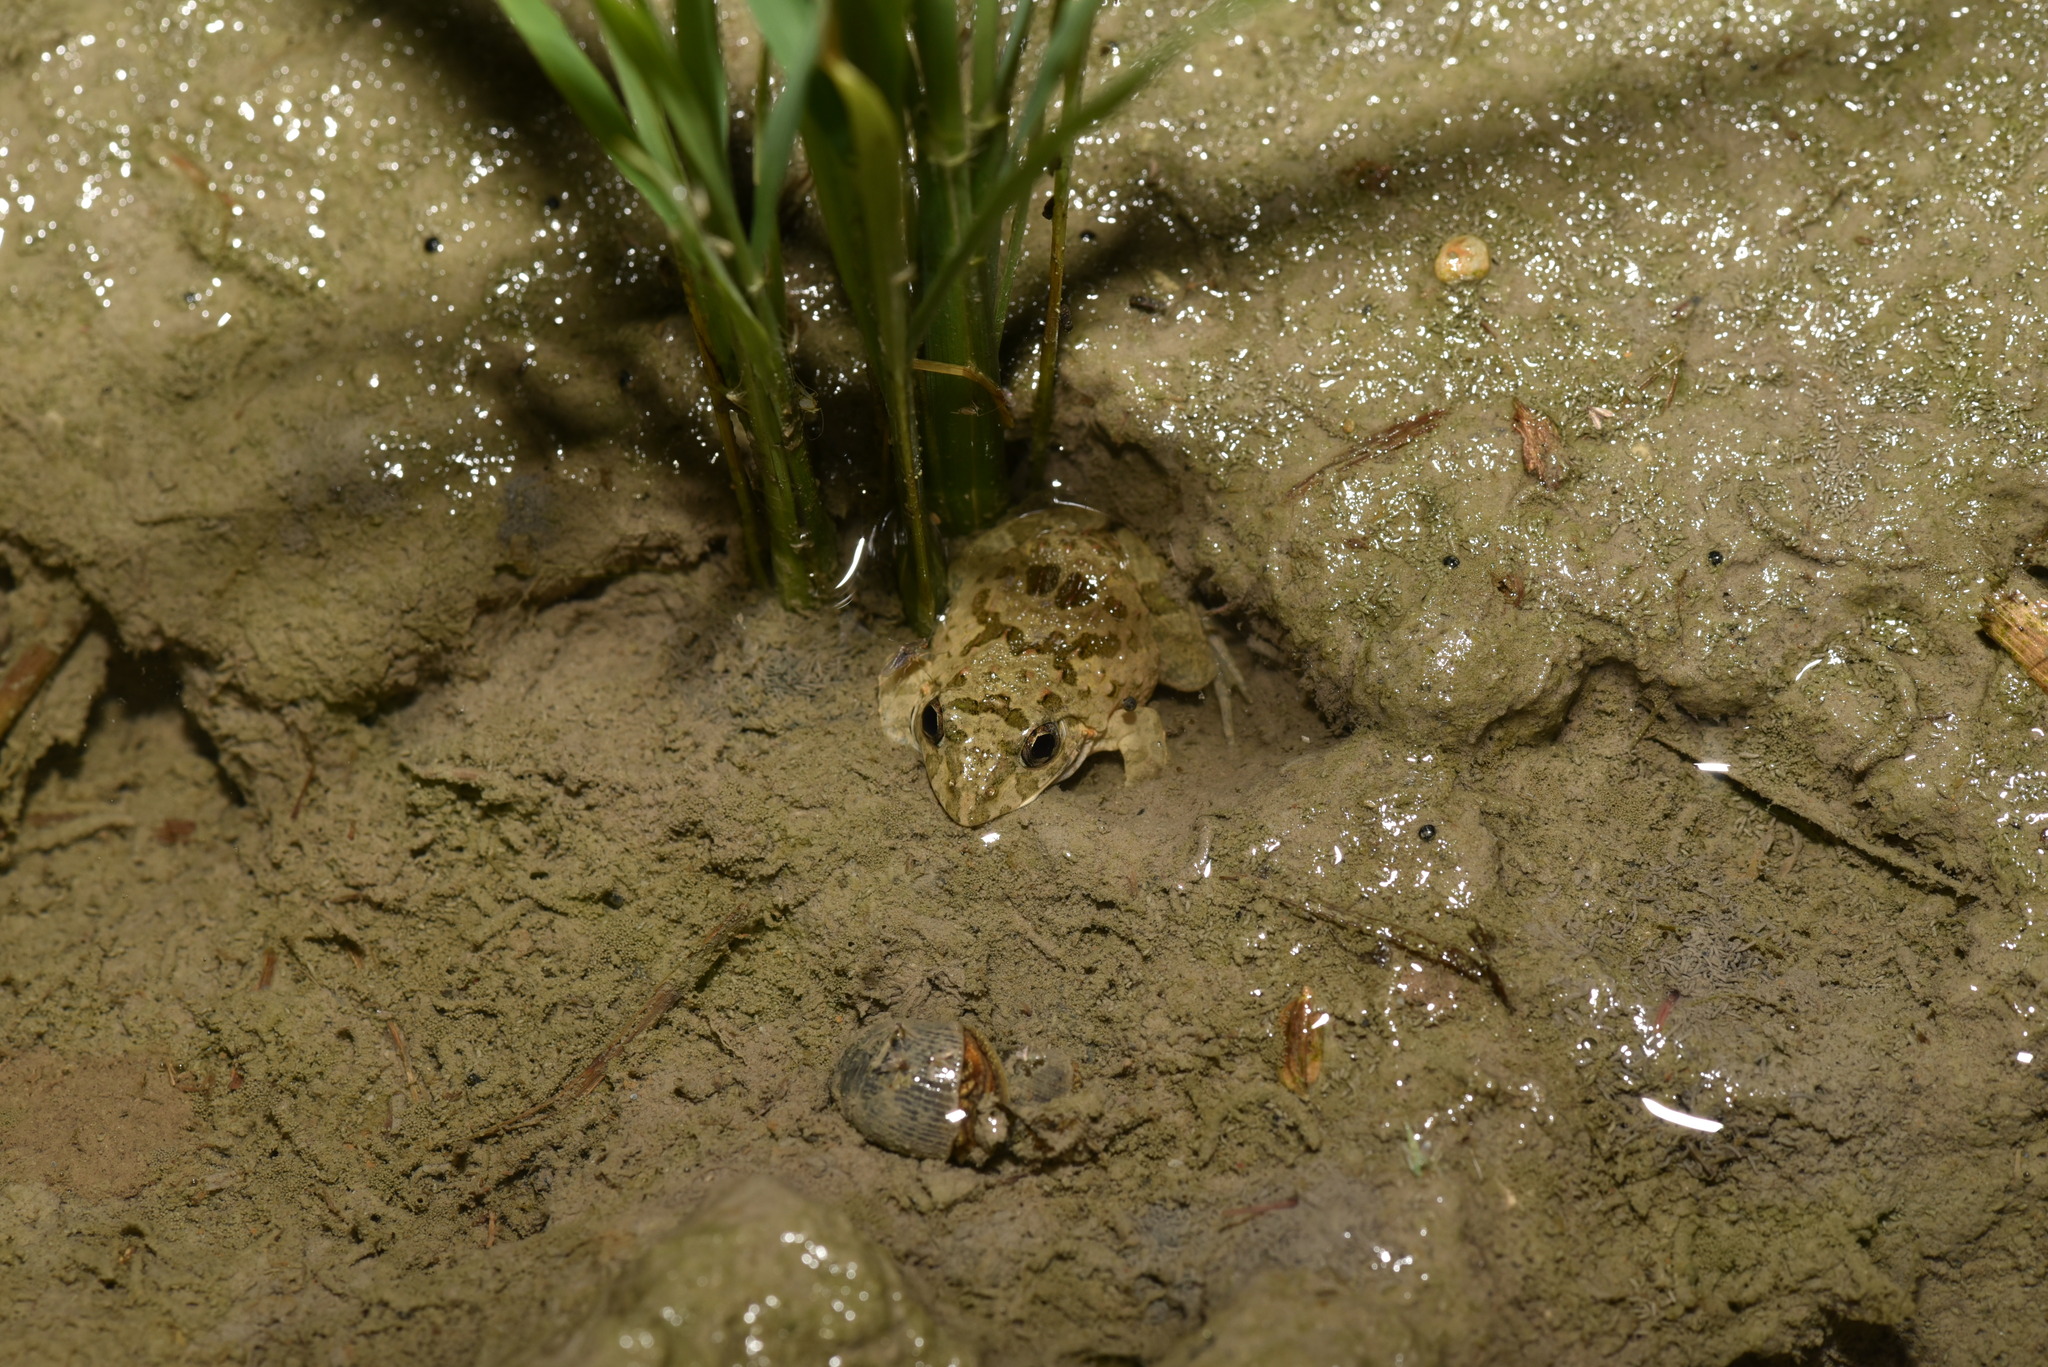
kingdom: Animalia
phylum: Chordata
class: Amphibia
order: Anura
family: Dicroglossidae
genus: Fejervarya
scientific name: Fejervarya limnocharis
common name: Asian grass frog/common pond frog/field frog/grass frog/indian rice frog
